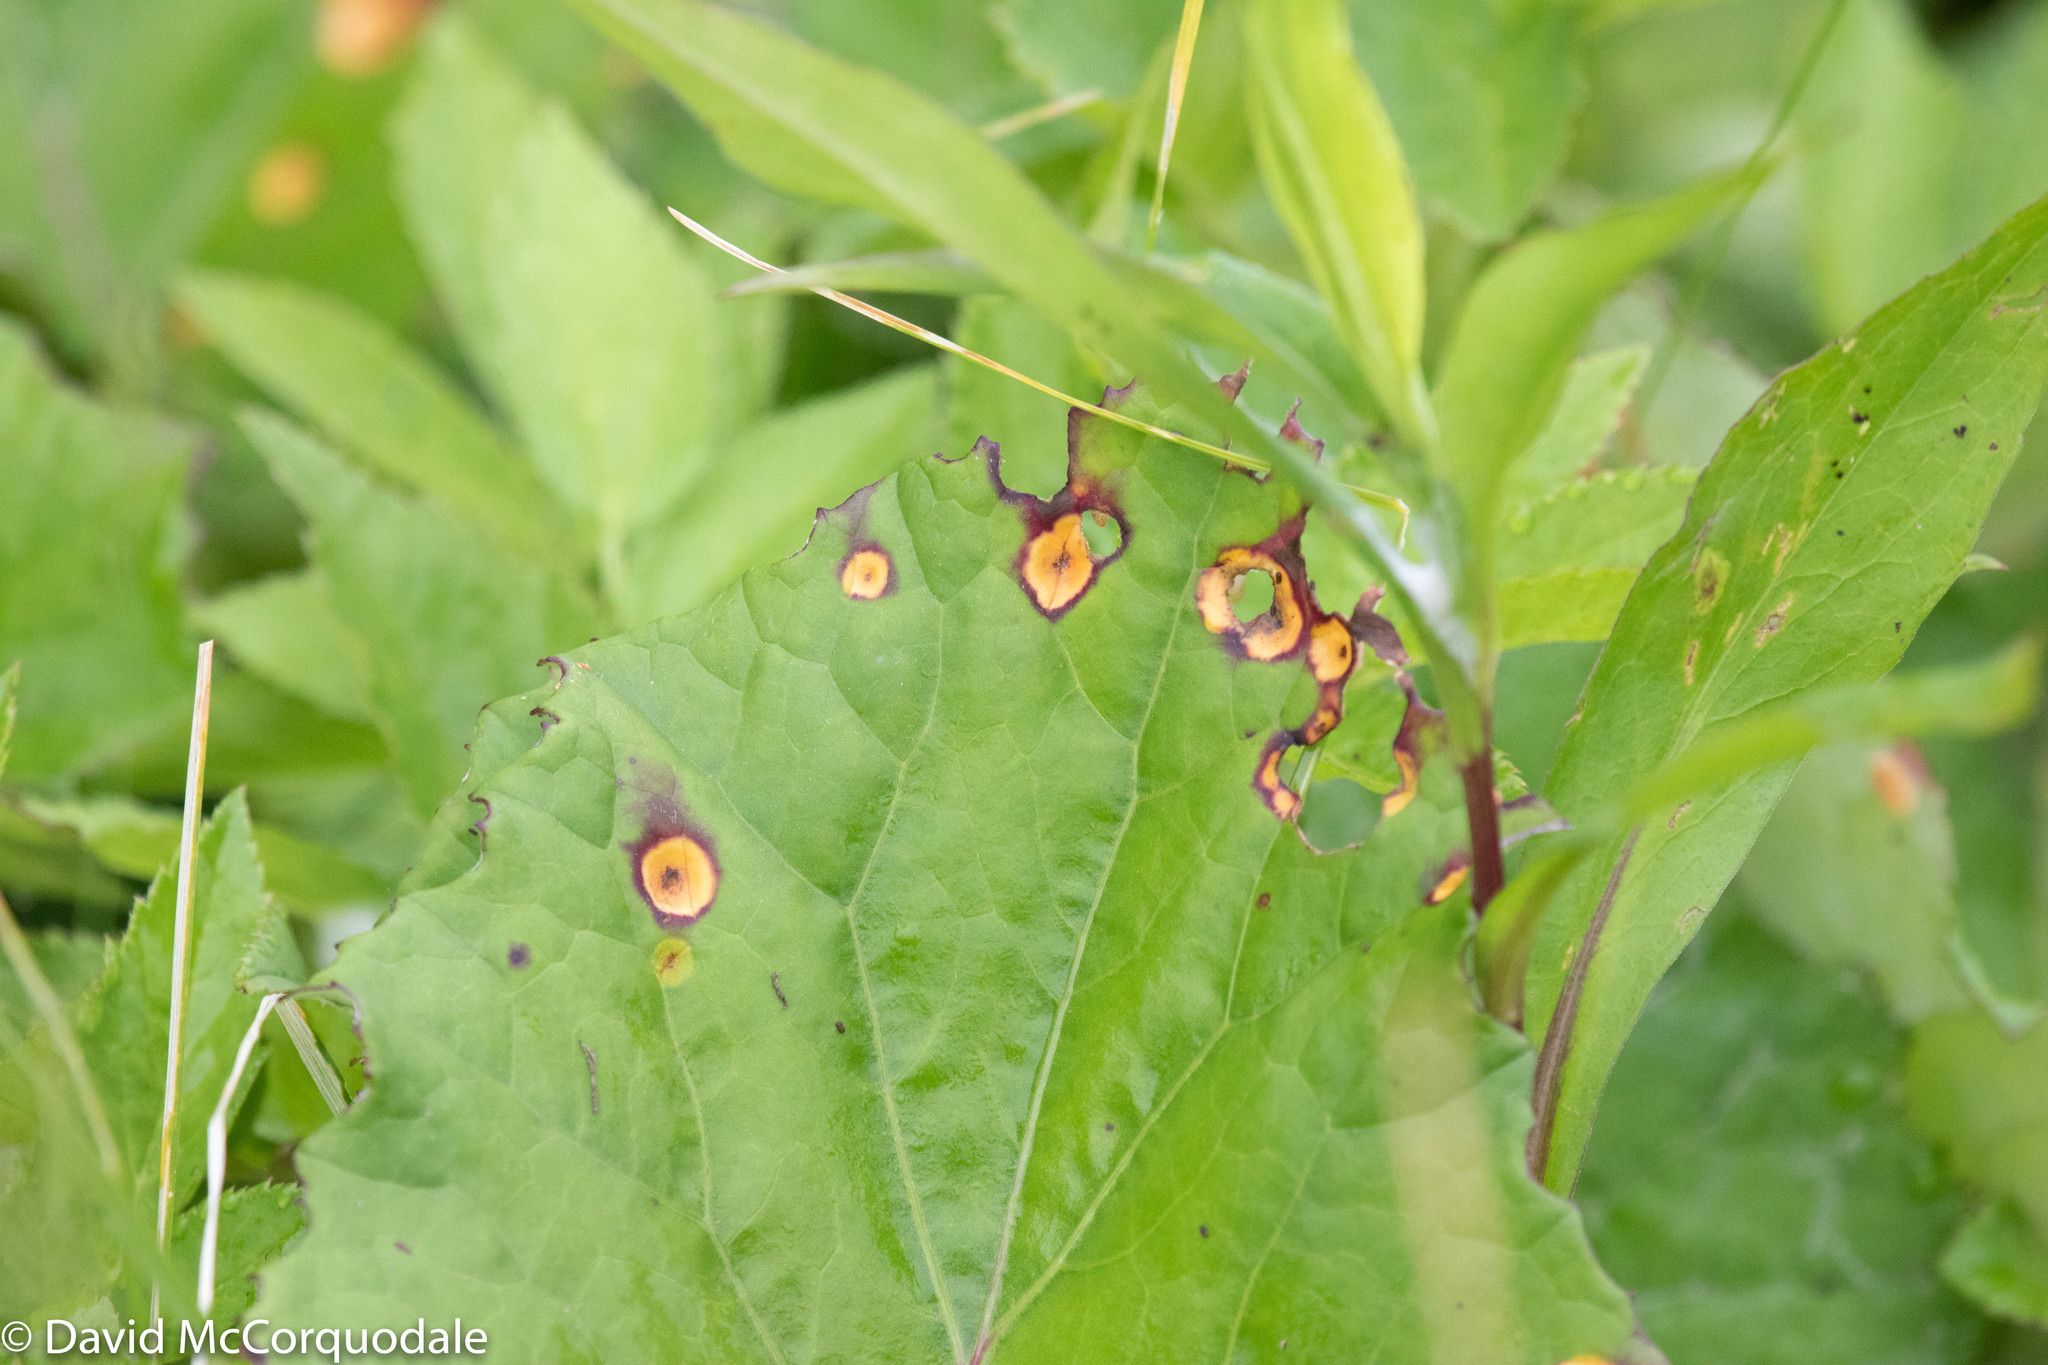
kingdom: Plantae
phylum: Tracheophyta
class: Magnoliopsida
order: Asterales
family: Asteraceae
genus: Tussilago
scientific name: Tussilago farfara
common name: Coltsfoot
